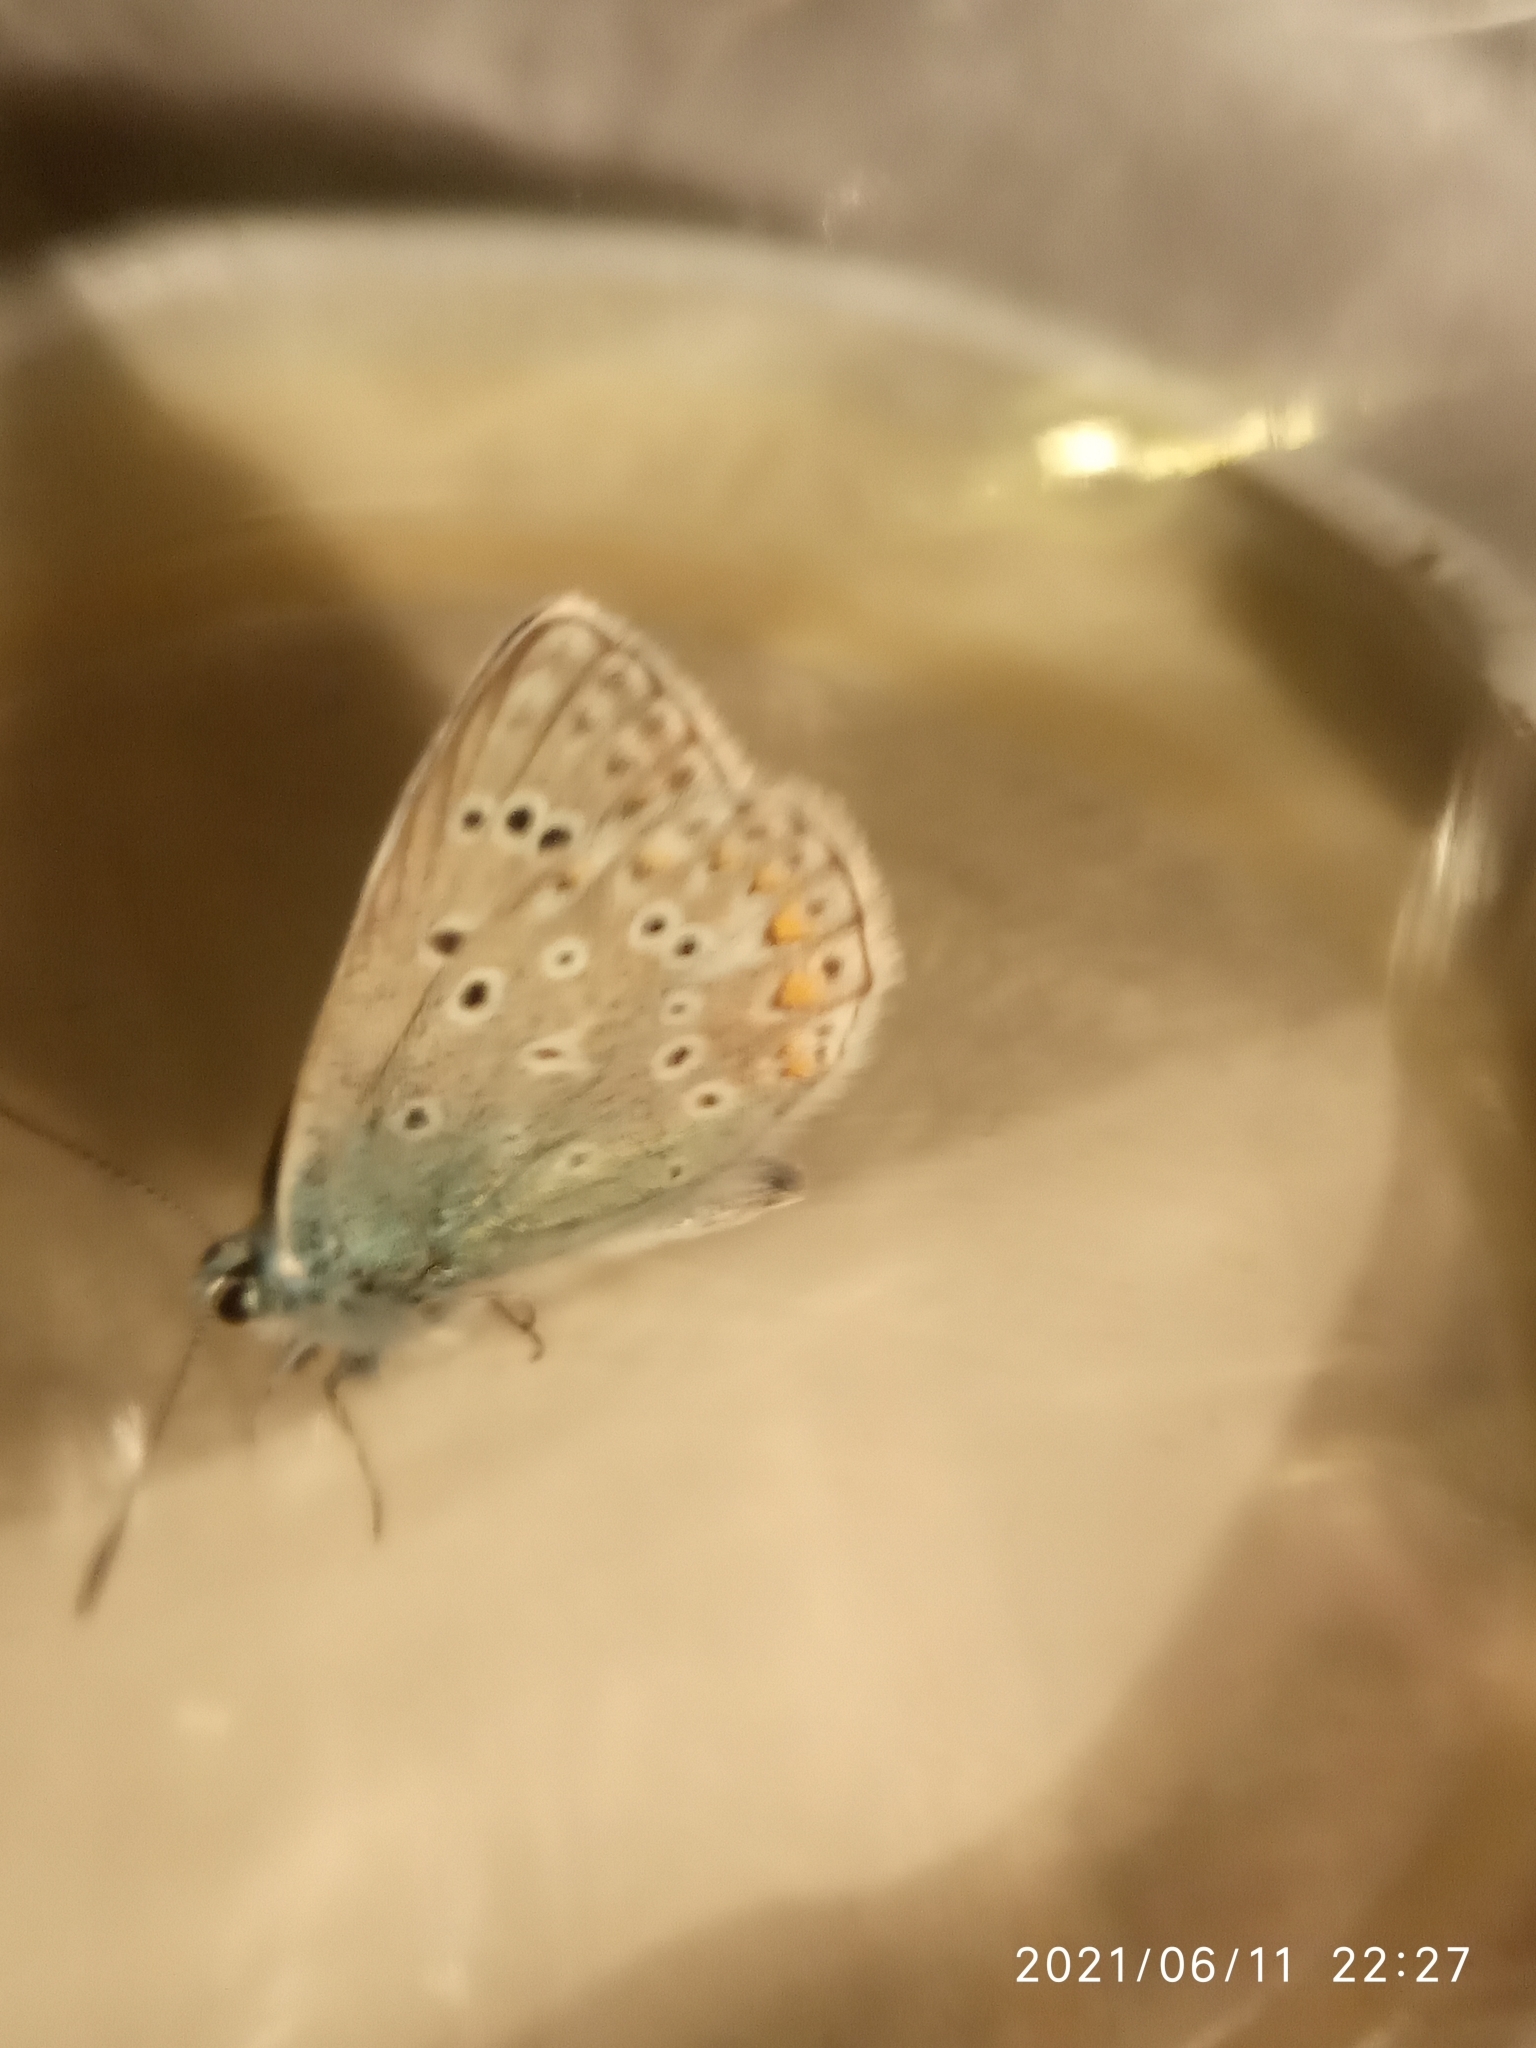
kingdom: Animalia
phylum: Arthropoda
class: Insecta
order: Lepidoptera
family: Lycaenidae
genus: Polyommatus
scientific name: Polyommatus icarus
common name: Common blue
